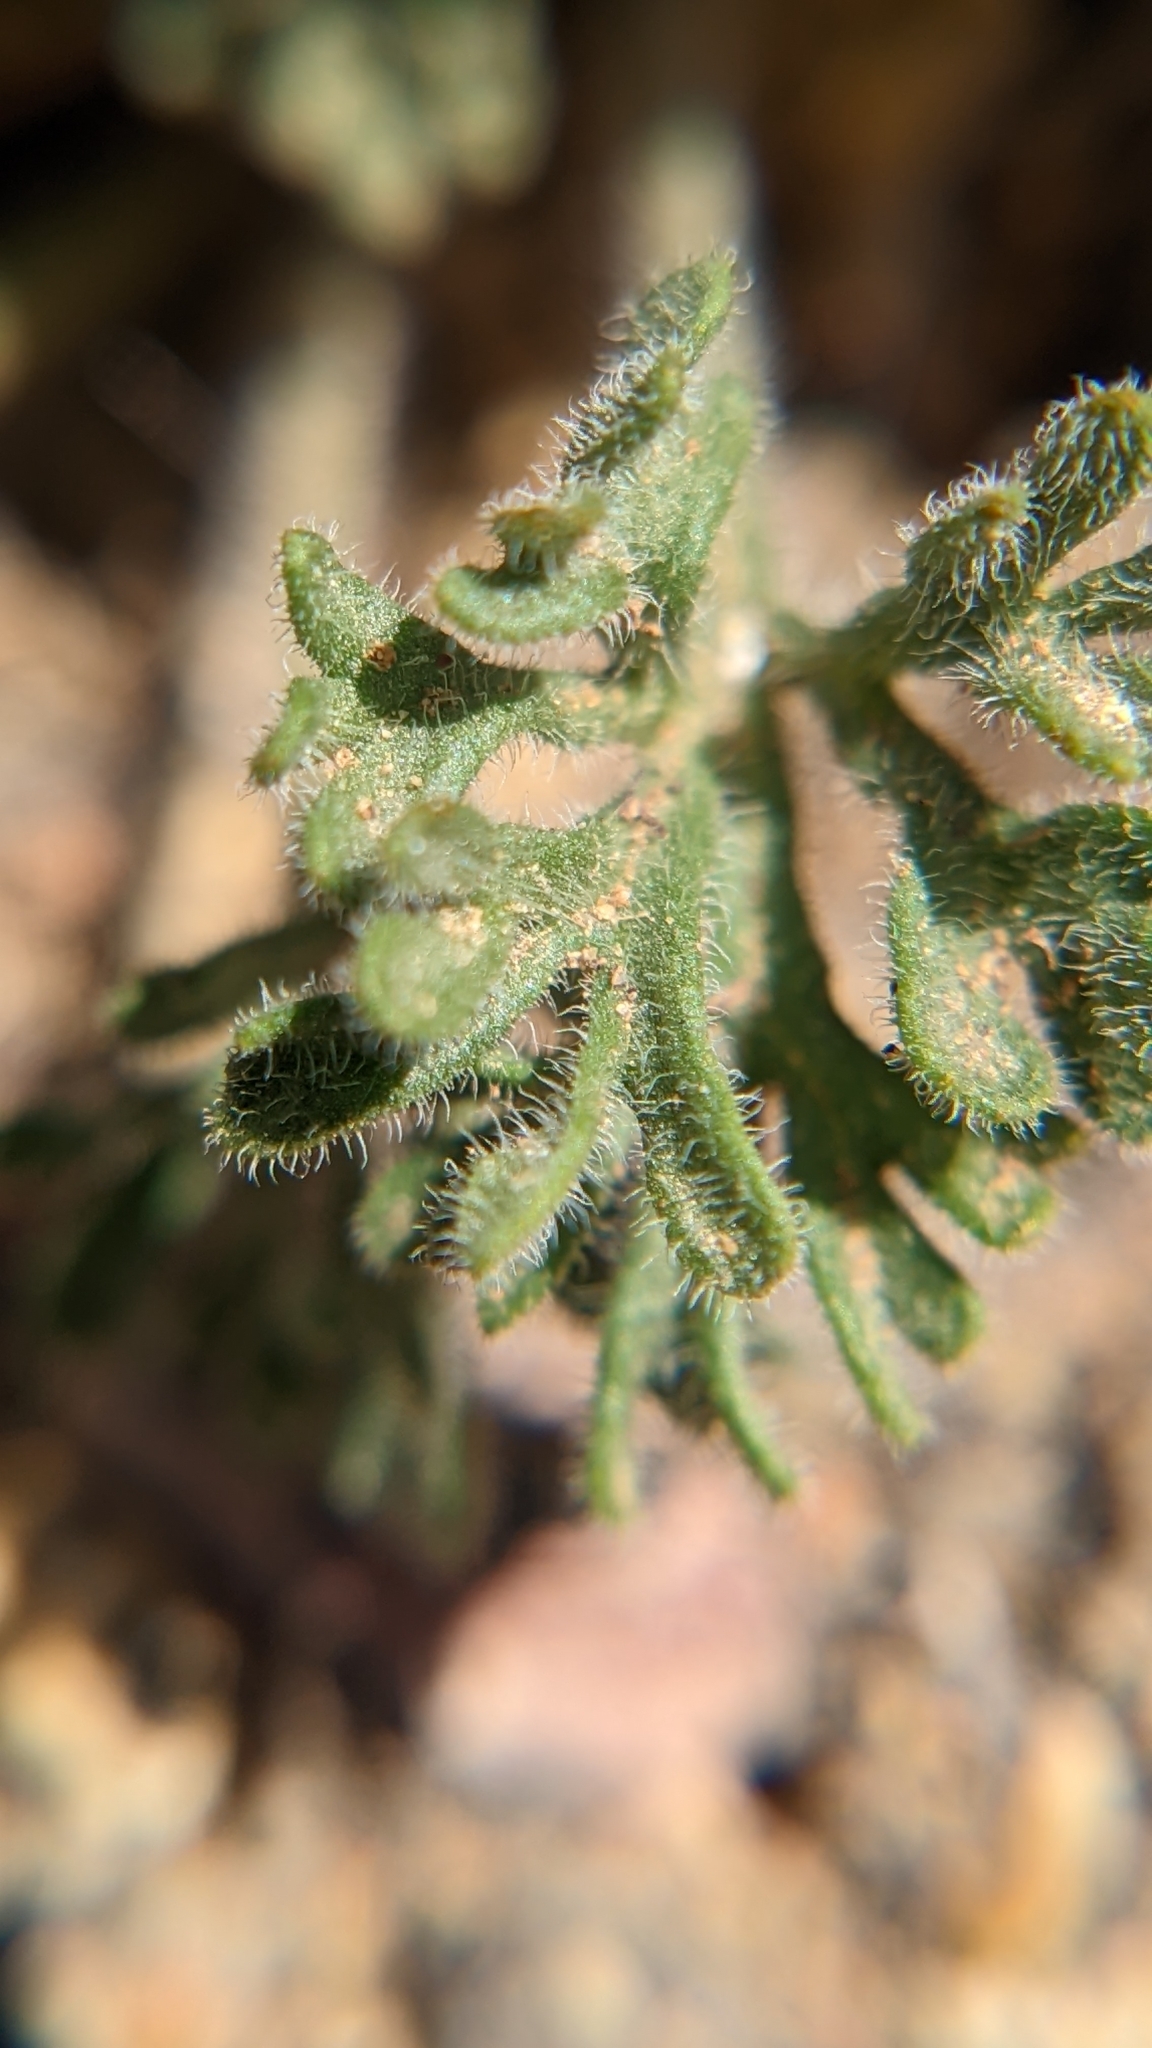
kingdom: Plantae
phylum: Tracheophyta
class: Magnoliopsida
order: Asterales
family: Asteraceae
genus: Erigeron
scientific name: Erigeron compositus
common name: Dwarf mountain fleabane
